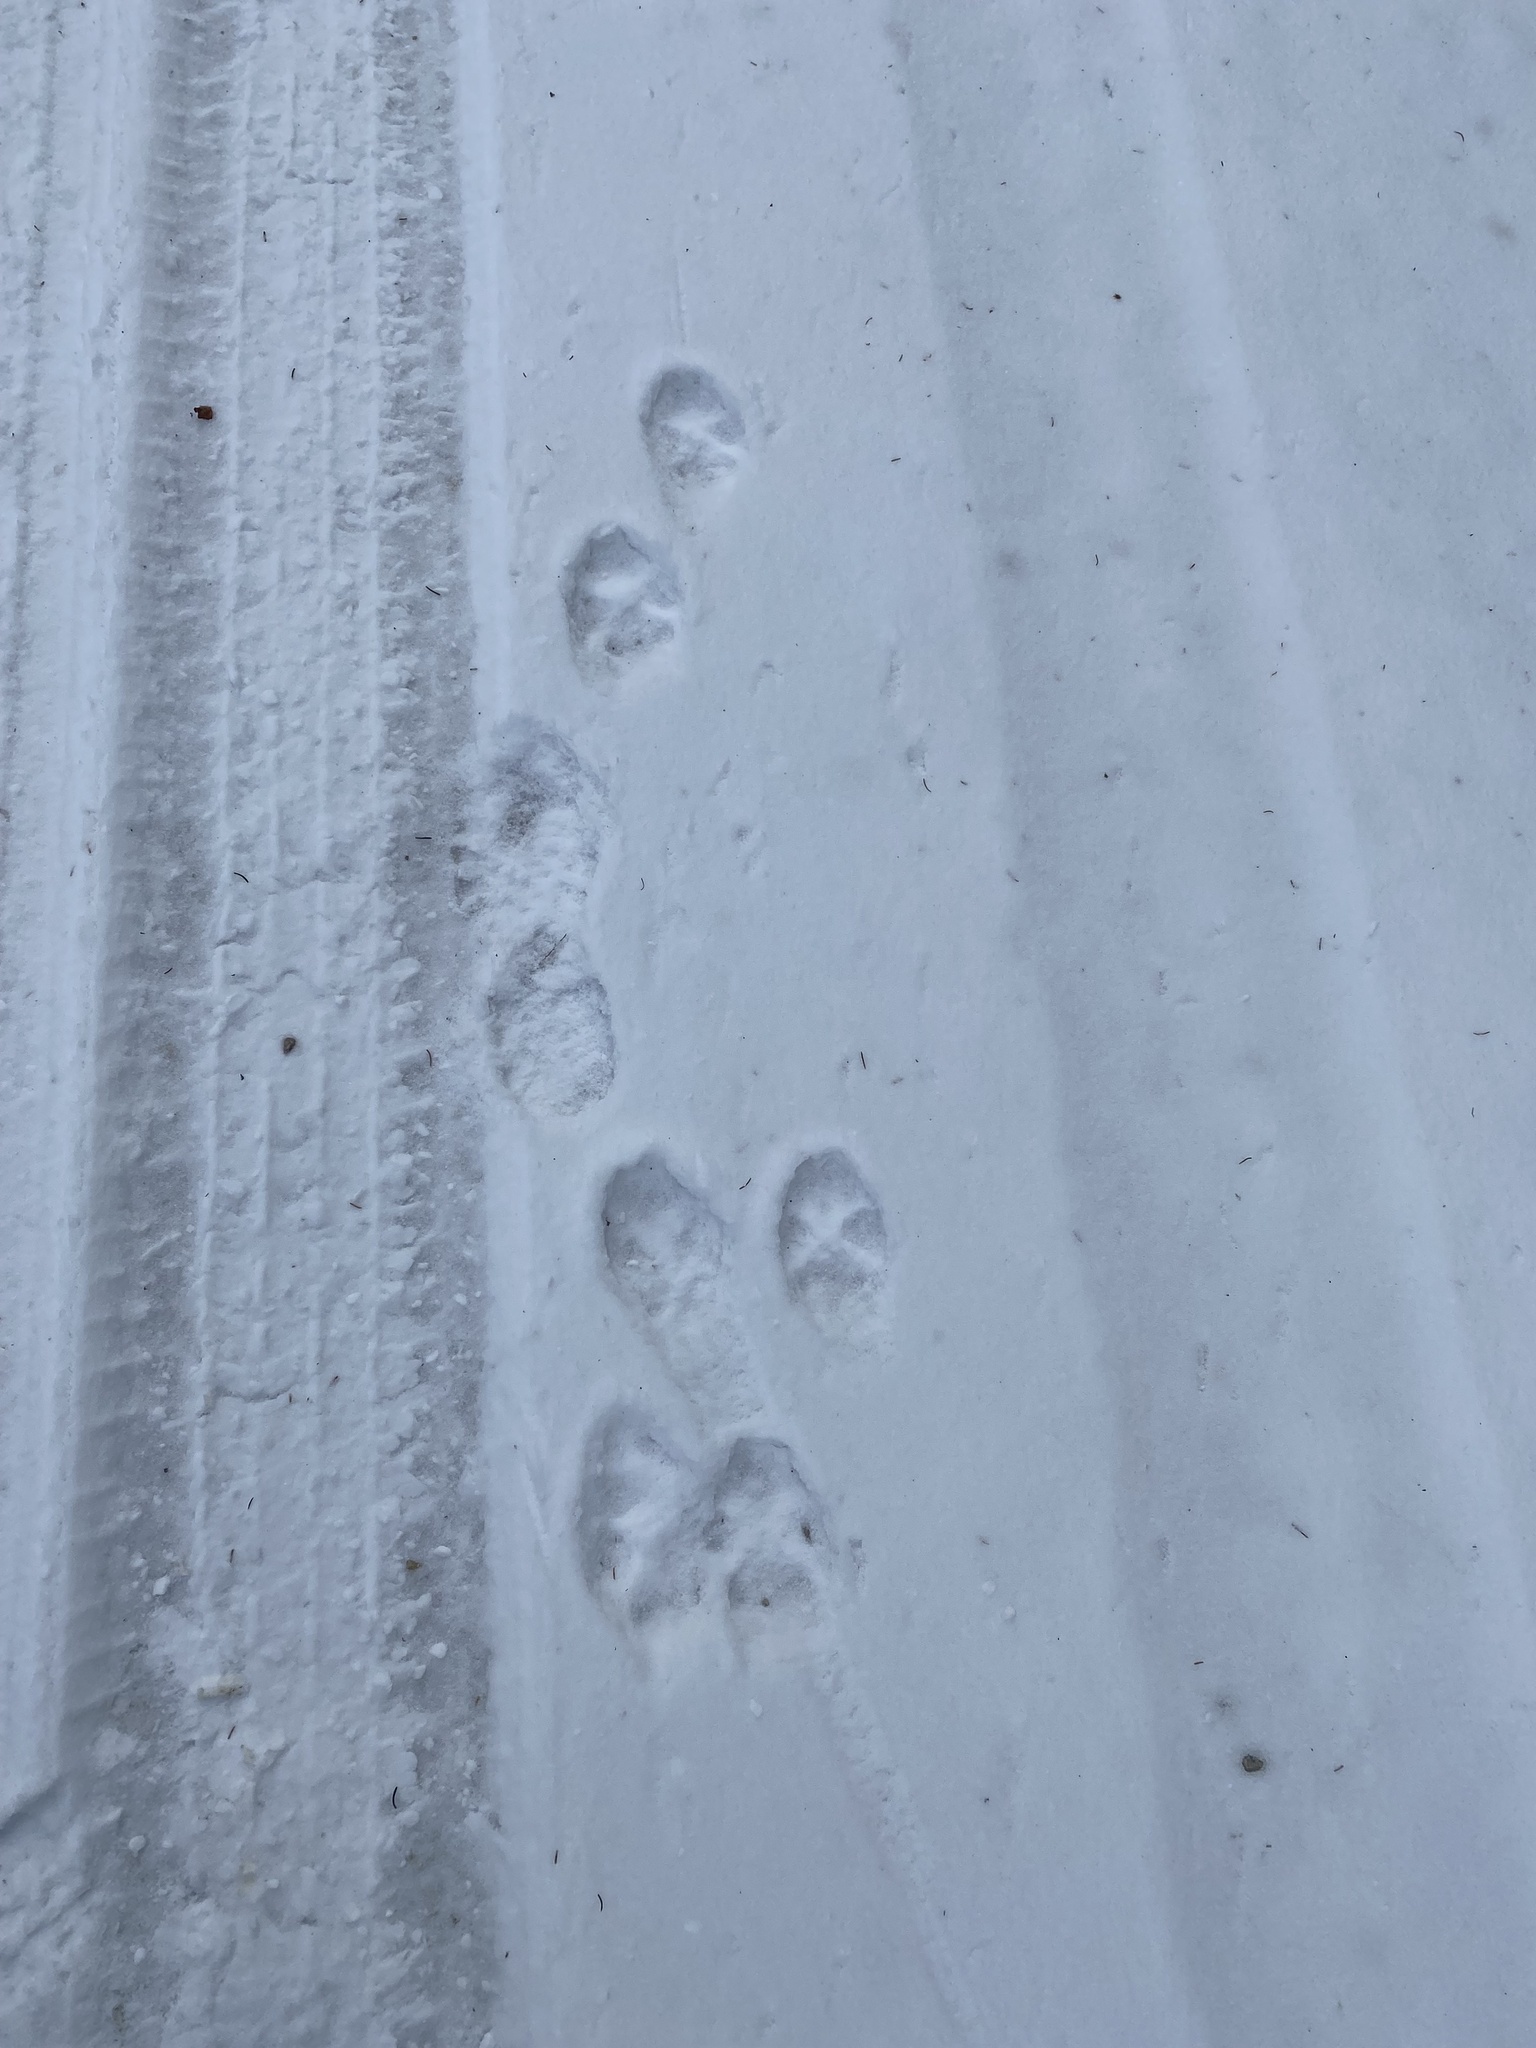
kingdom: Animalia
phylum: Chordata
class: Mammalia
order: Carnivora
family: Canidae
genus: Canis
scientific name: Canis latrans
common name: Coyote
